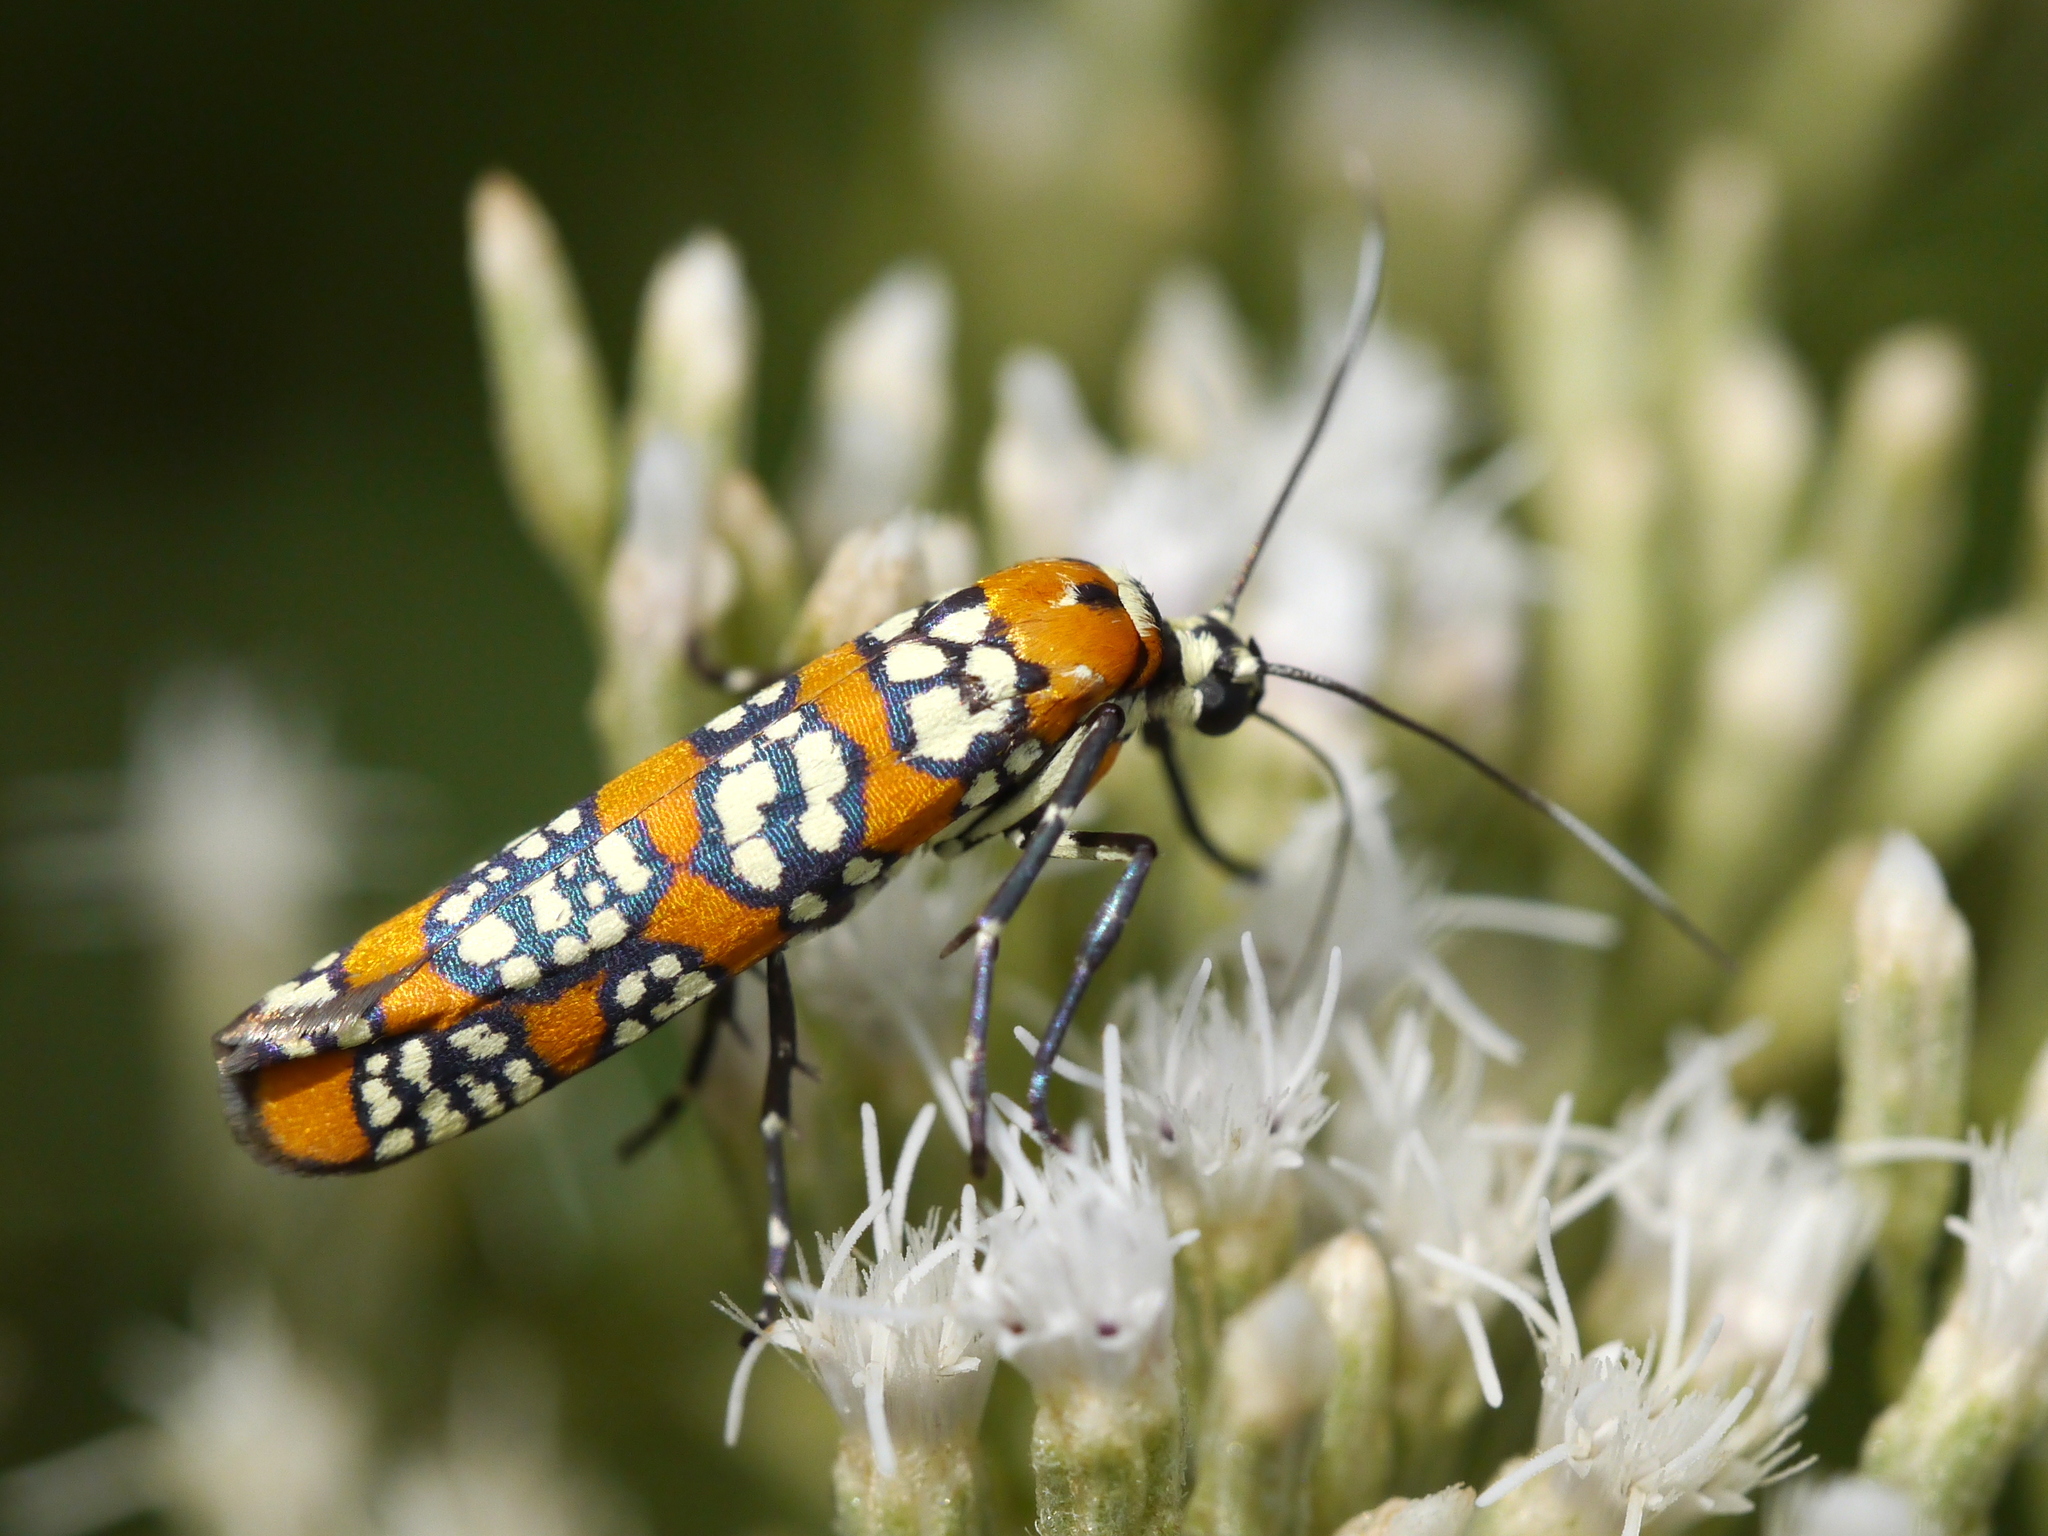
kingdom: Animalia
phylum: Arthropoda
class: Insecta
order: Lepidoptera
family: Attevidae
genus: Atteva
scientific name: Atteva punctella
